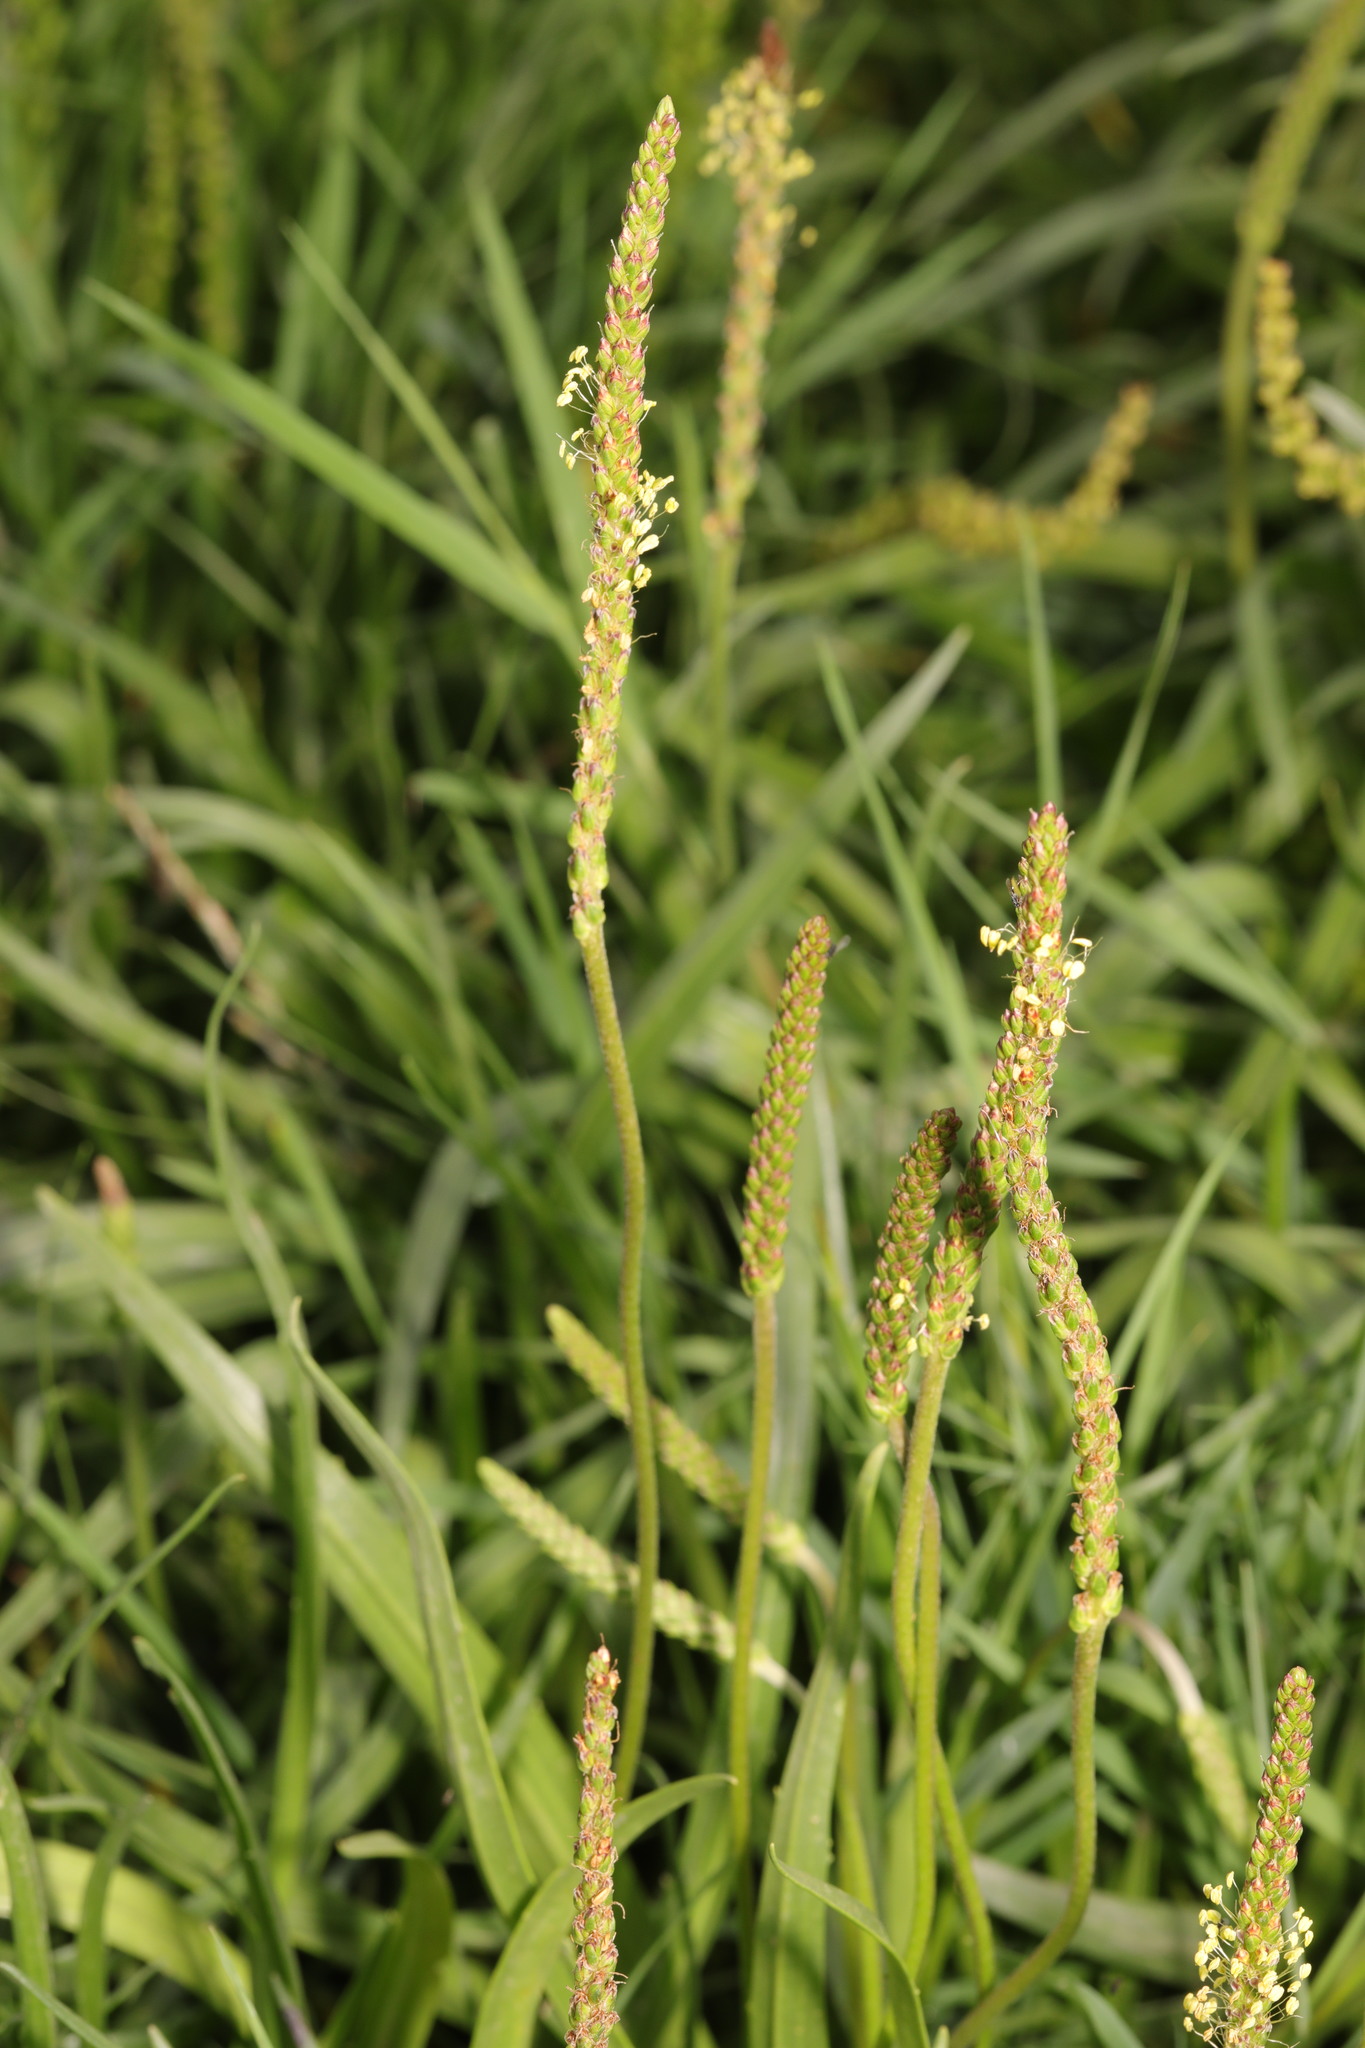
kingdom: Plantae
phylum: Tracheophyta
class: Magnoliopsida
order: Lamiales
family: Plantaginaceae
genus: Plantago
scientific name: Plantago maritima
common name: Sea plantain
